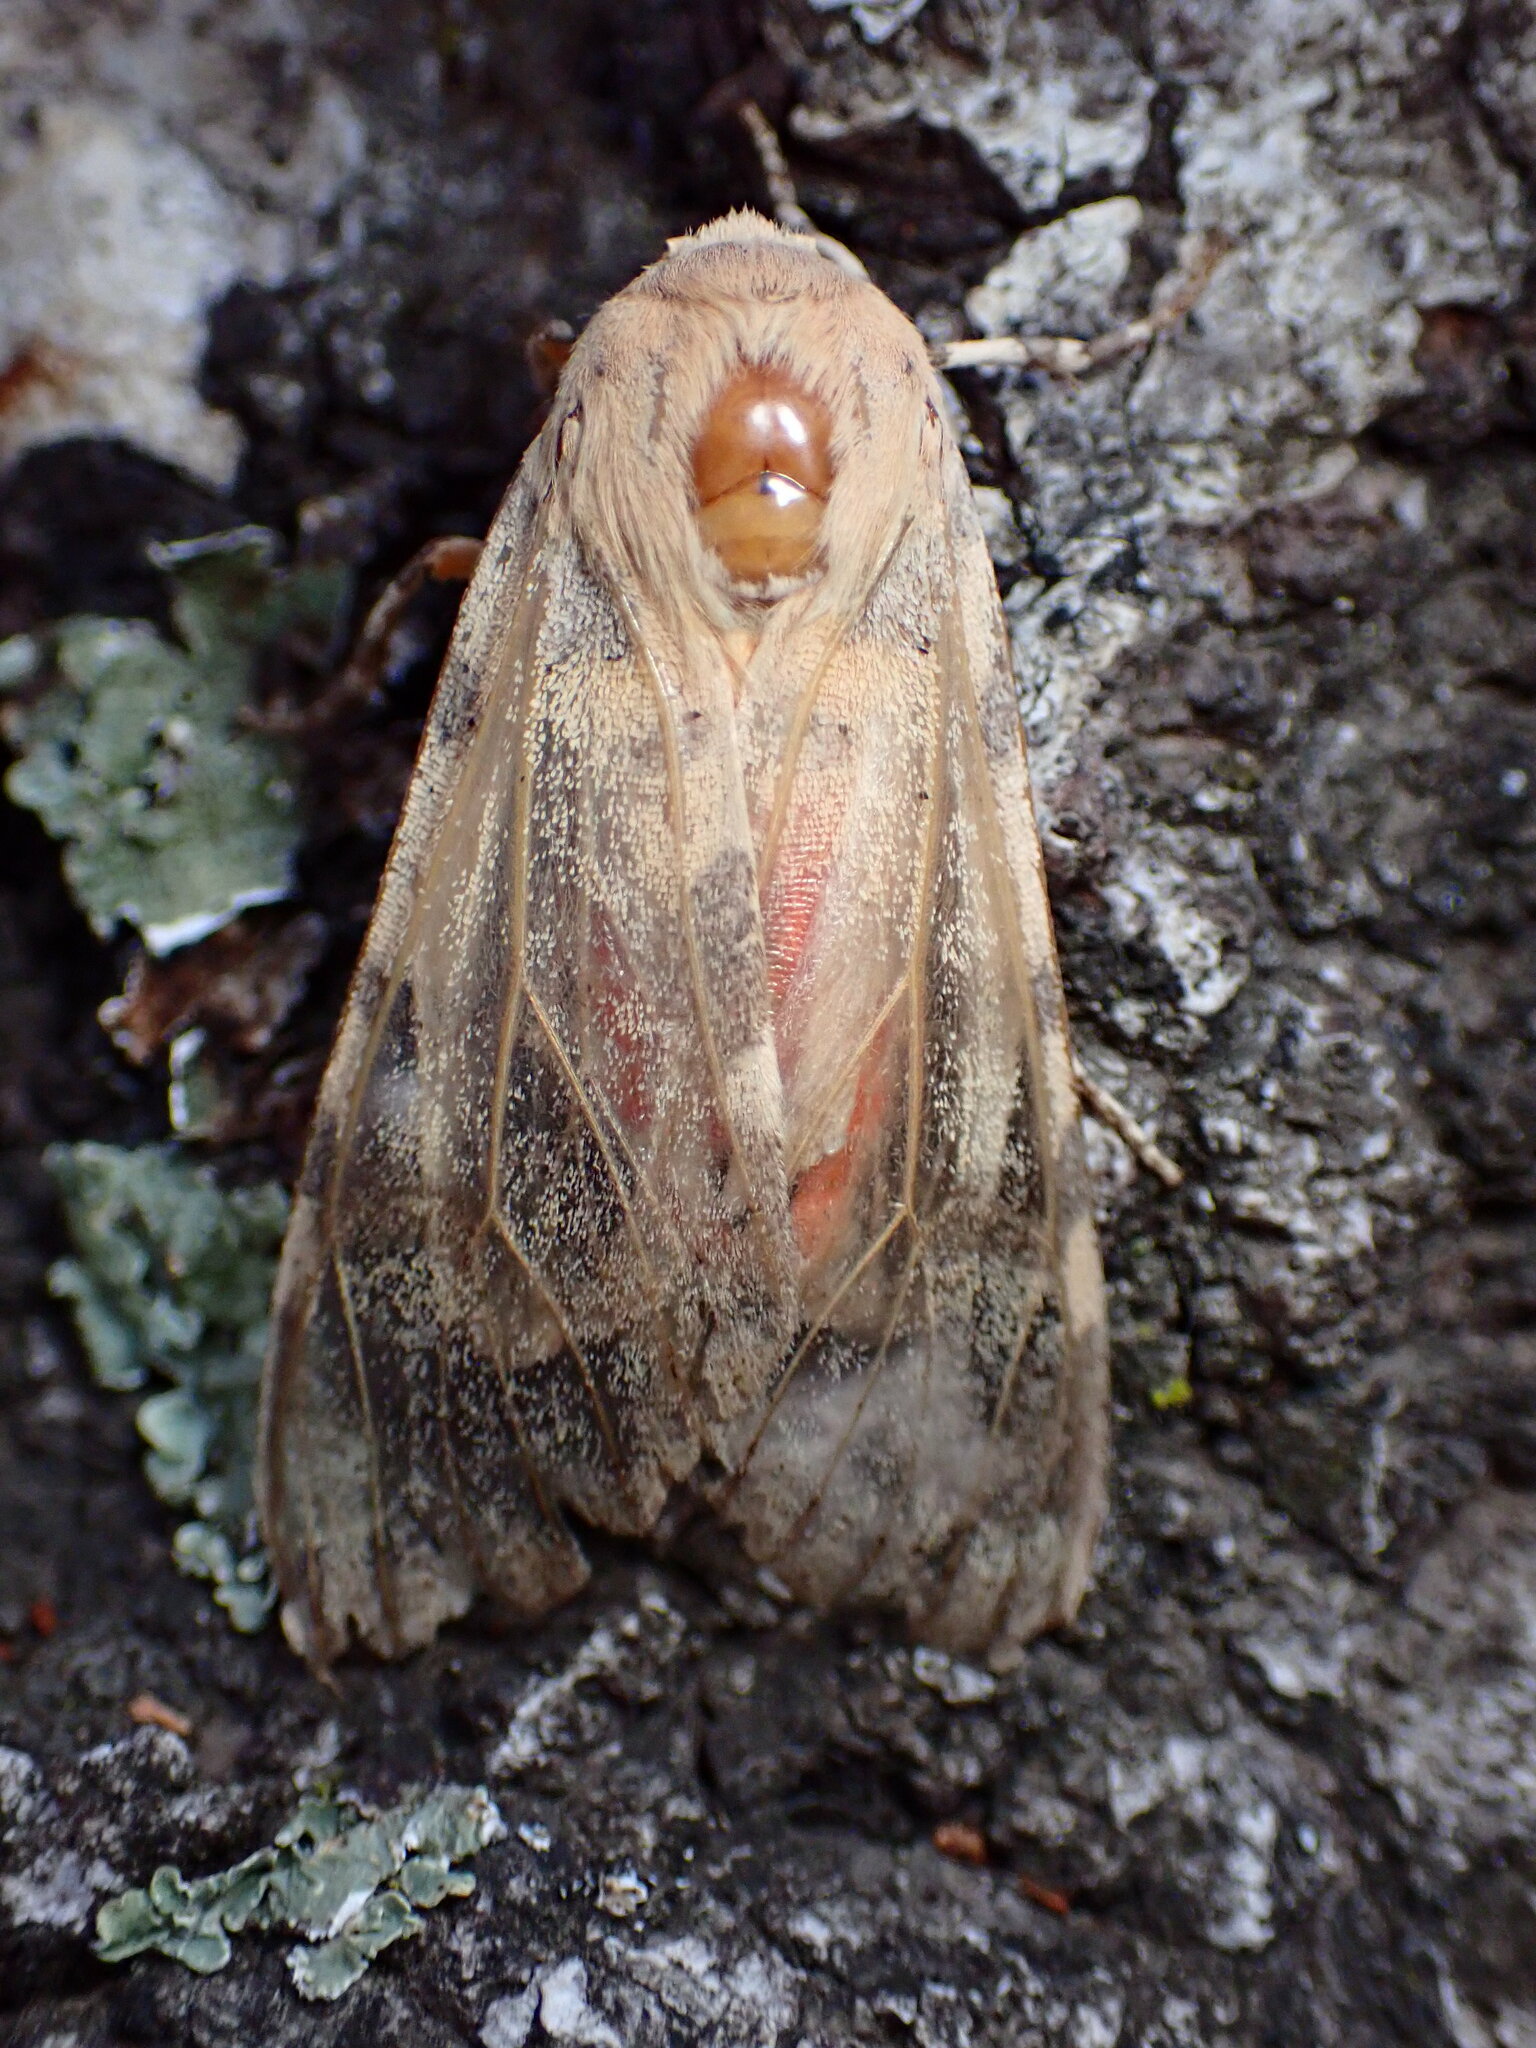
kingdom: Animalia
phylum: Arthropoda
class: Insecta
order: Lepidoptera
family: Erebidae
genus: Hemihyalea
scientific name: Hemihyalea edwardsii
